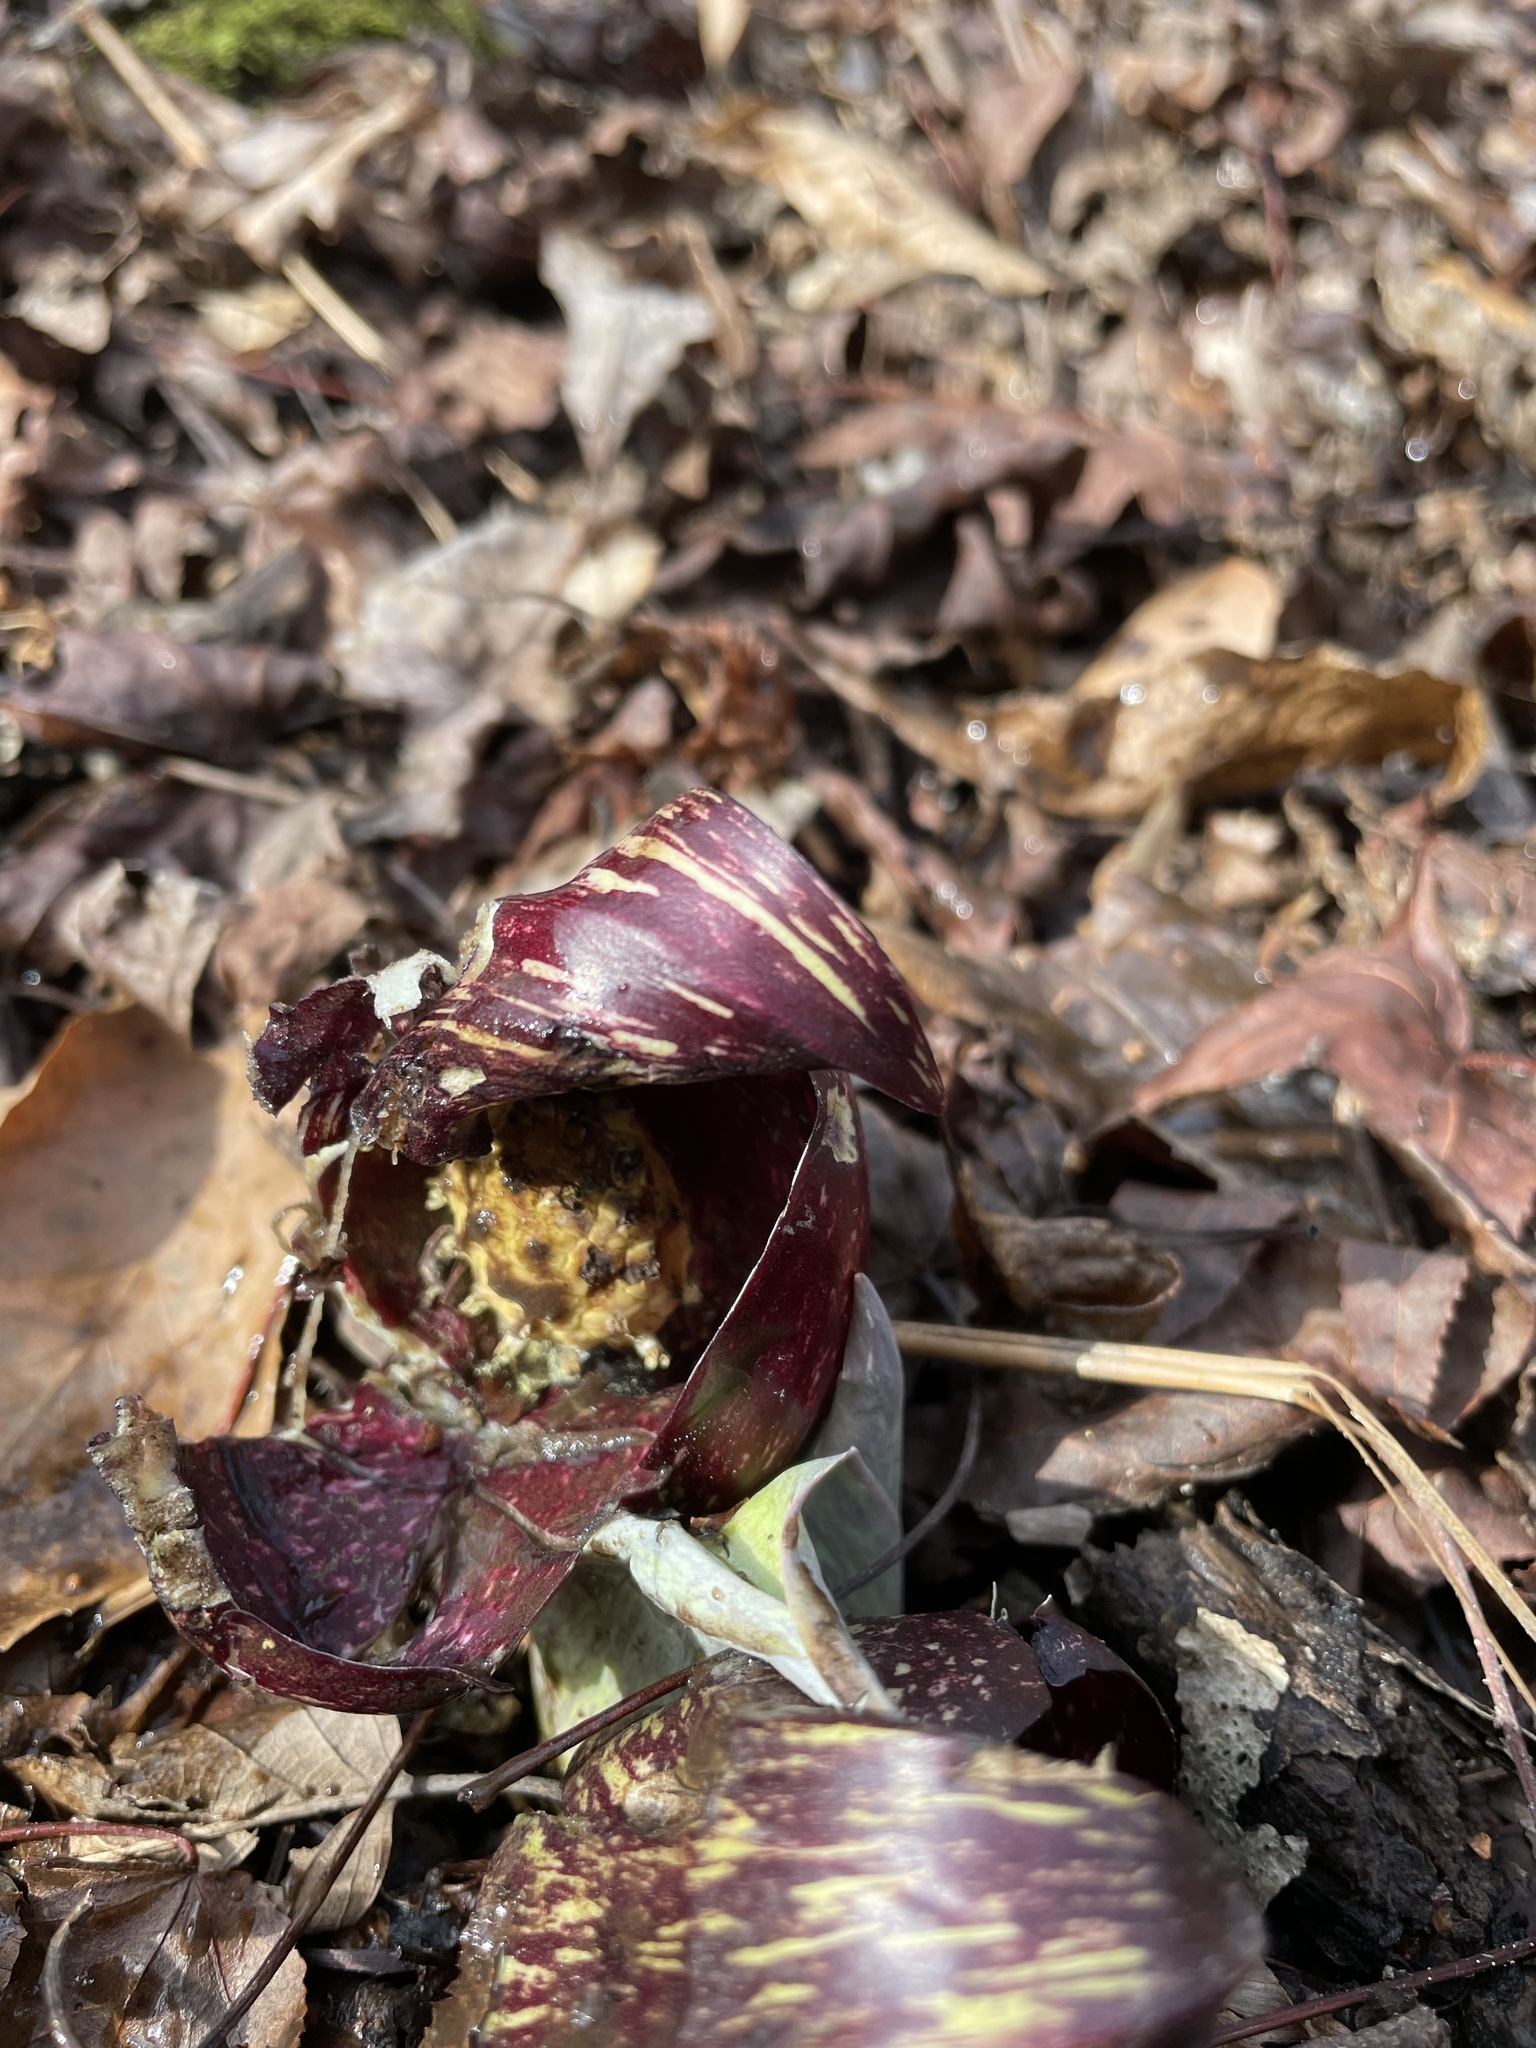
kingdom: Plantae
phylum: Tracheophyta
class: Liliopsida
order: Alismatales
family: Araceae
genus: Symplocarpus
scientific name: Symplocarpus foetidus
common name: Eastern skunk cabbage
